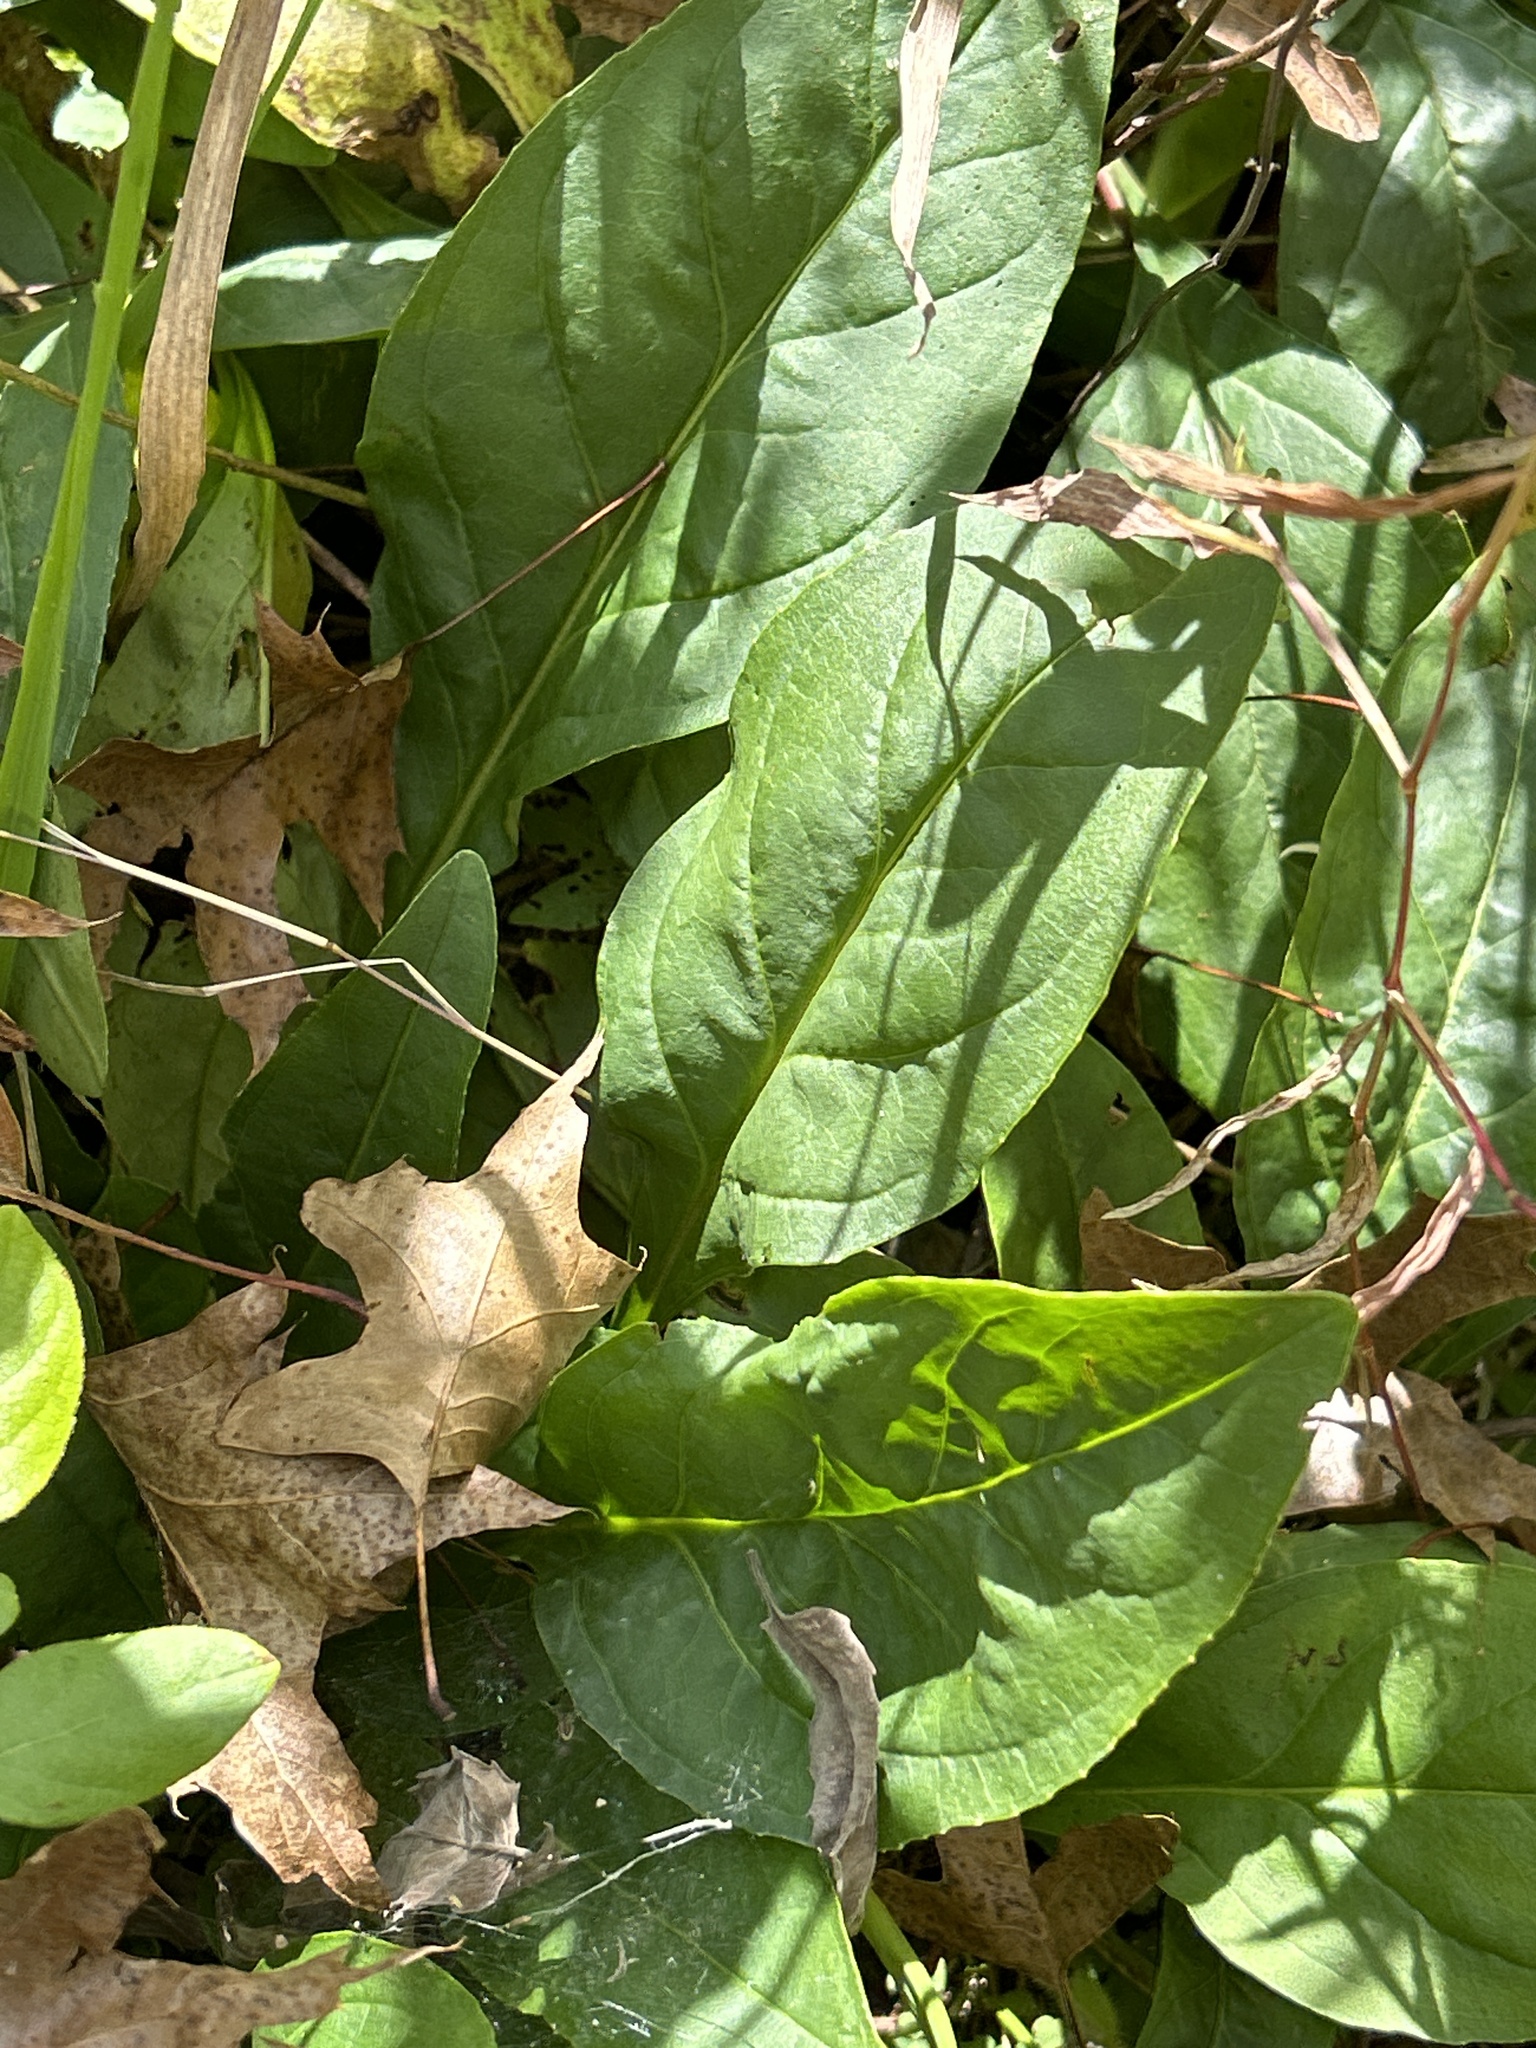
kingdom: Plantae
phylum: Tracheophyta
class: Magnoliopsida
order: Lamiales
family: Plantaginaceae
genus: Penstemon
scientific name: Penstemon digitalis
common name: Foxglove beardtongue
